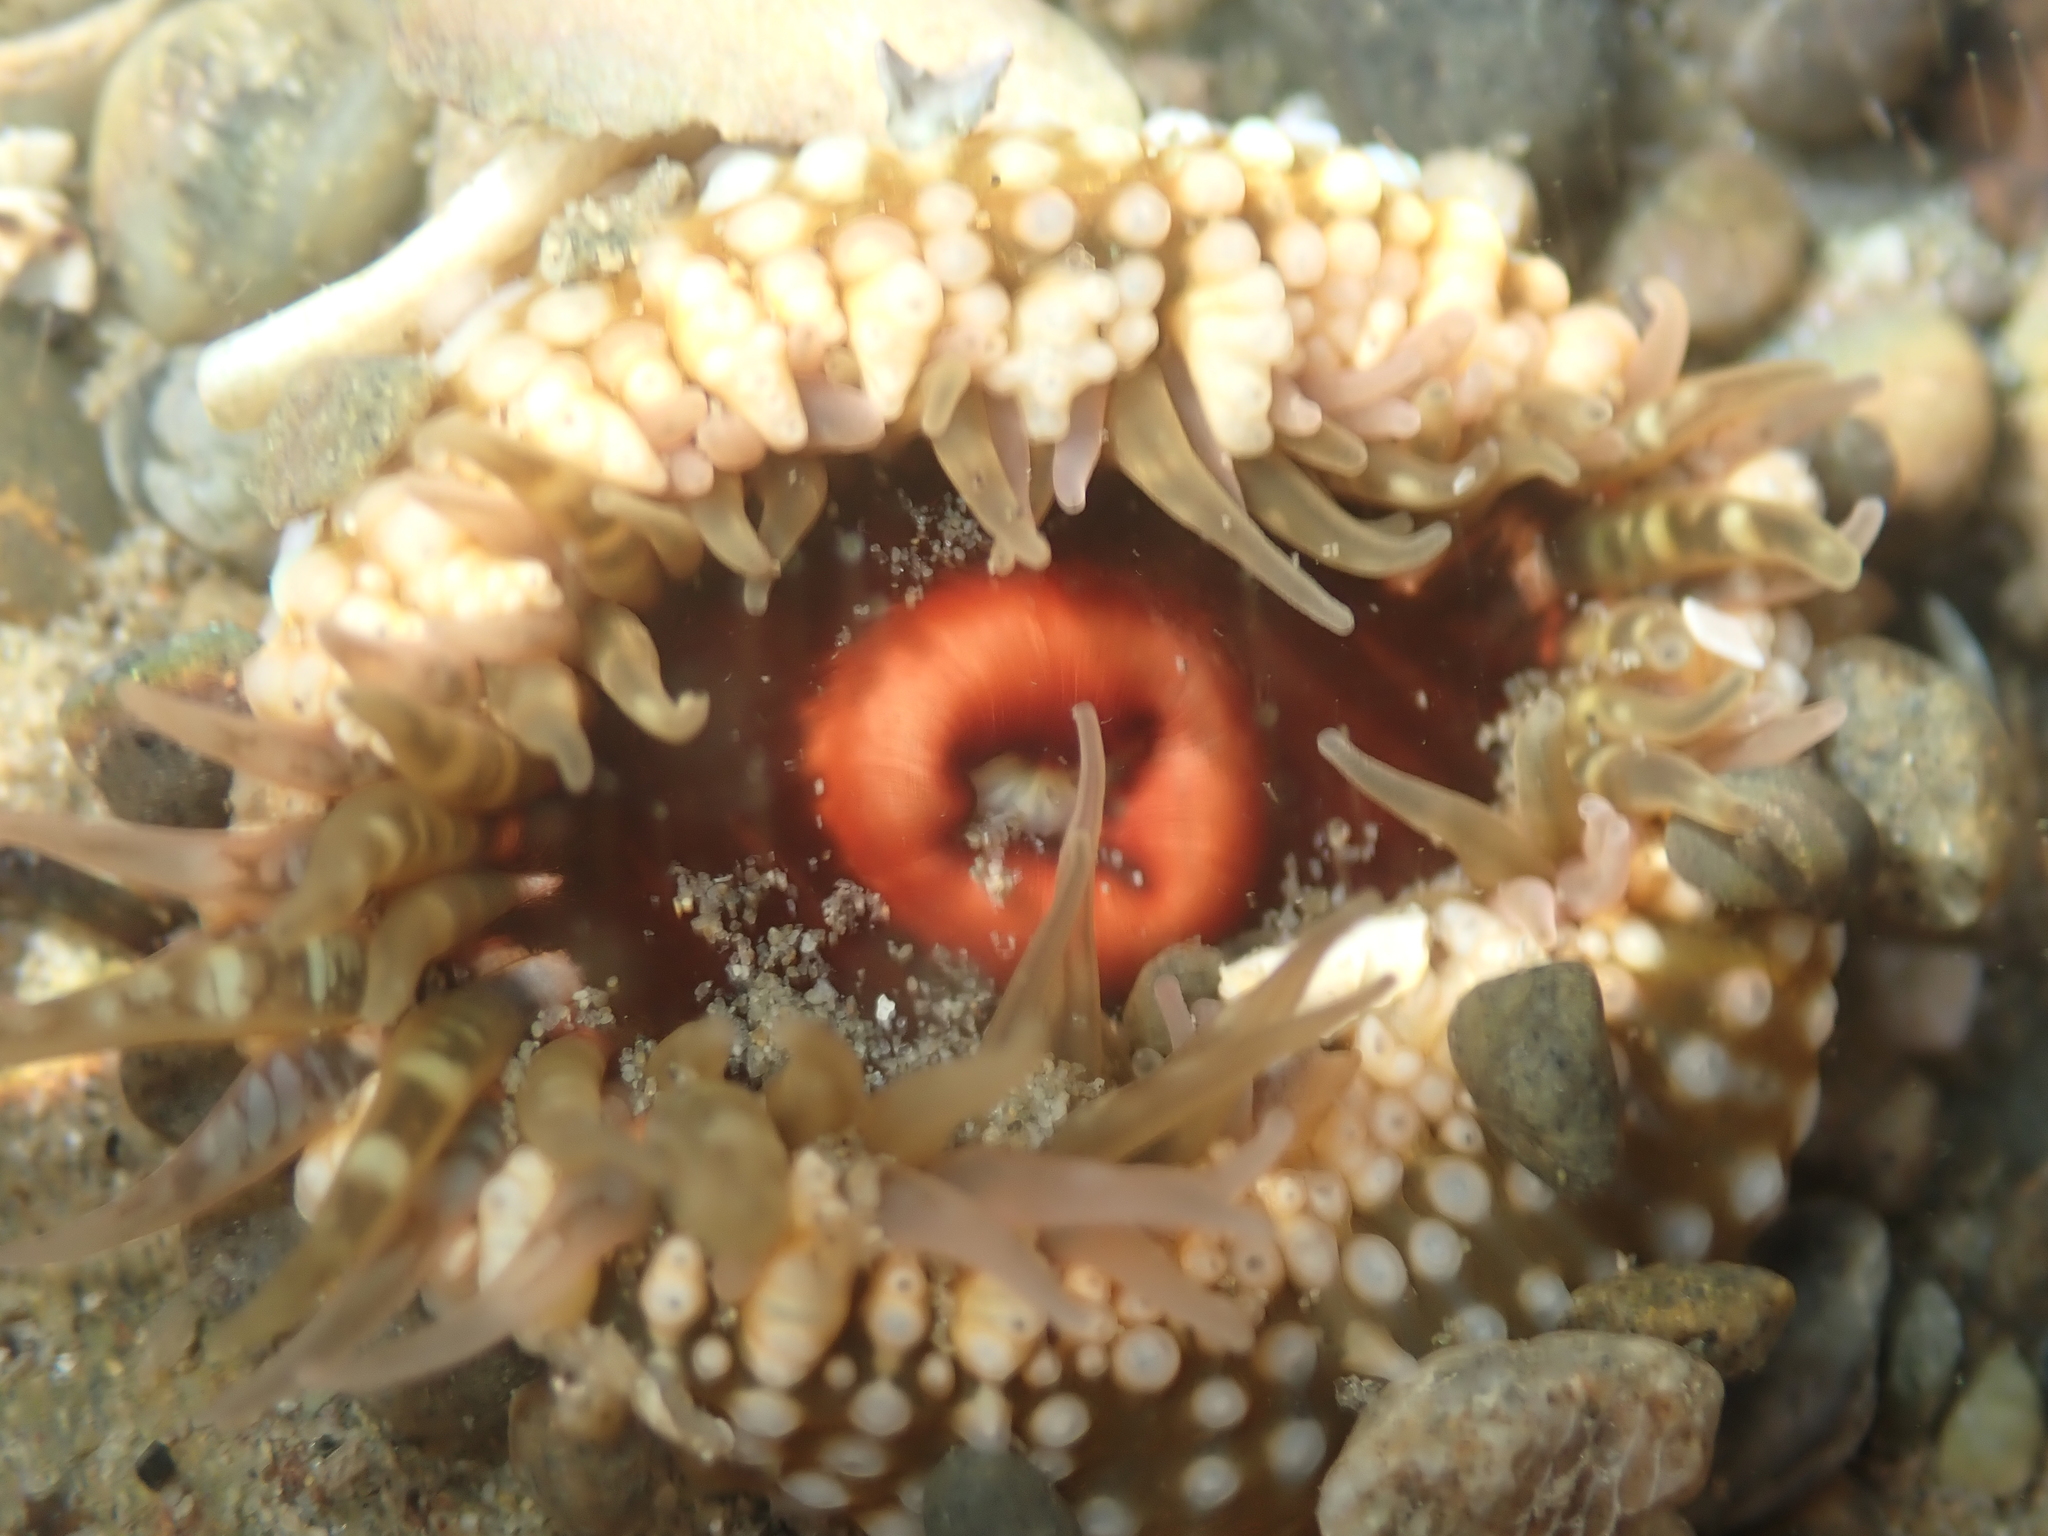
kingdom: Animalia
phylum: Cnidaria
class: Anthozoa
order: Actiniaria
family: Actiniidae
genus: Oulactis
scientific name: Oulactis muscosa
